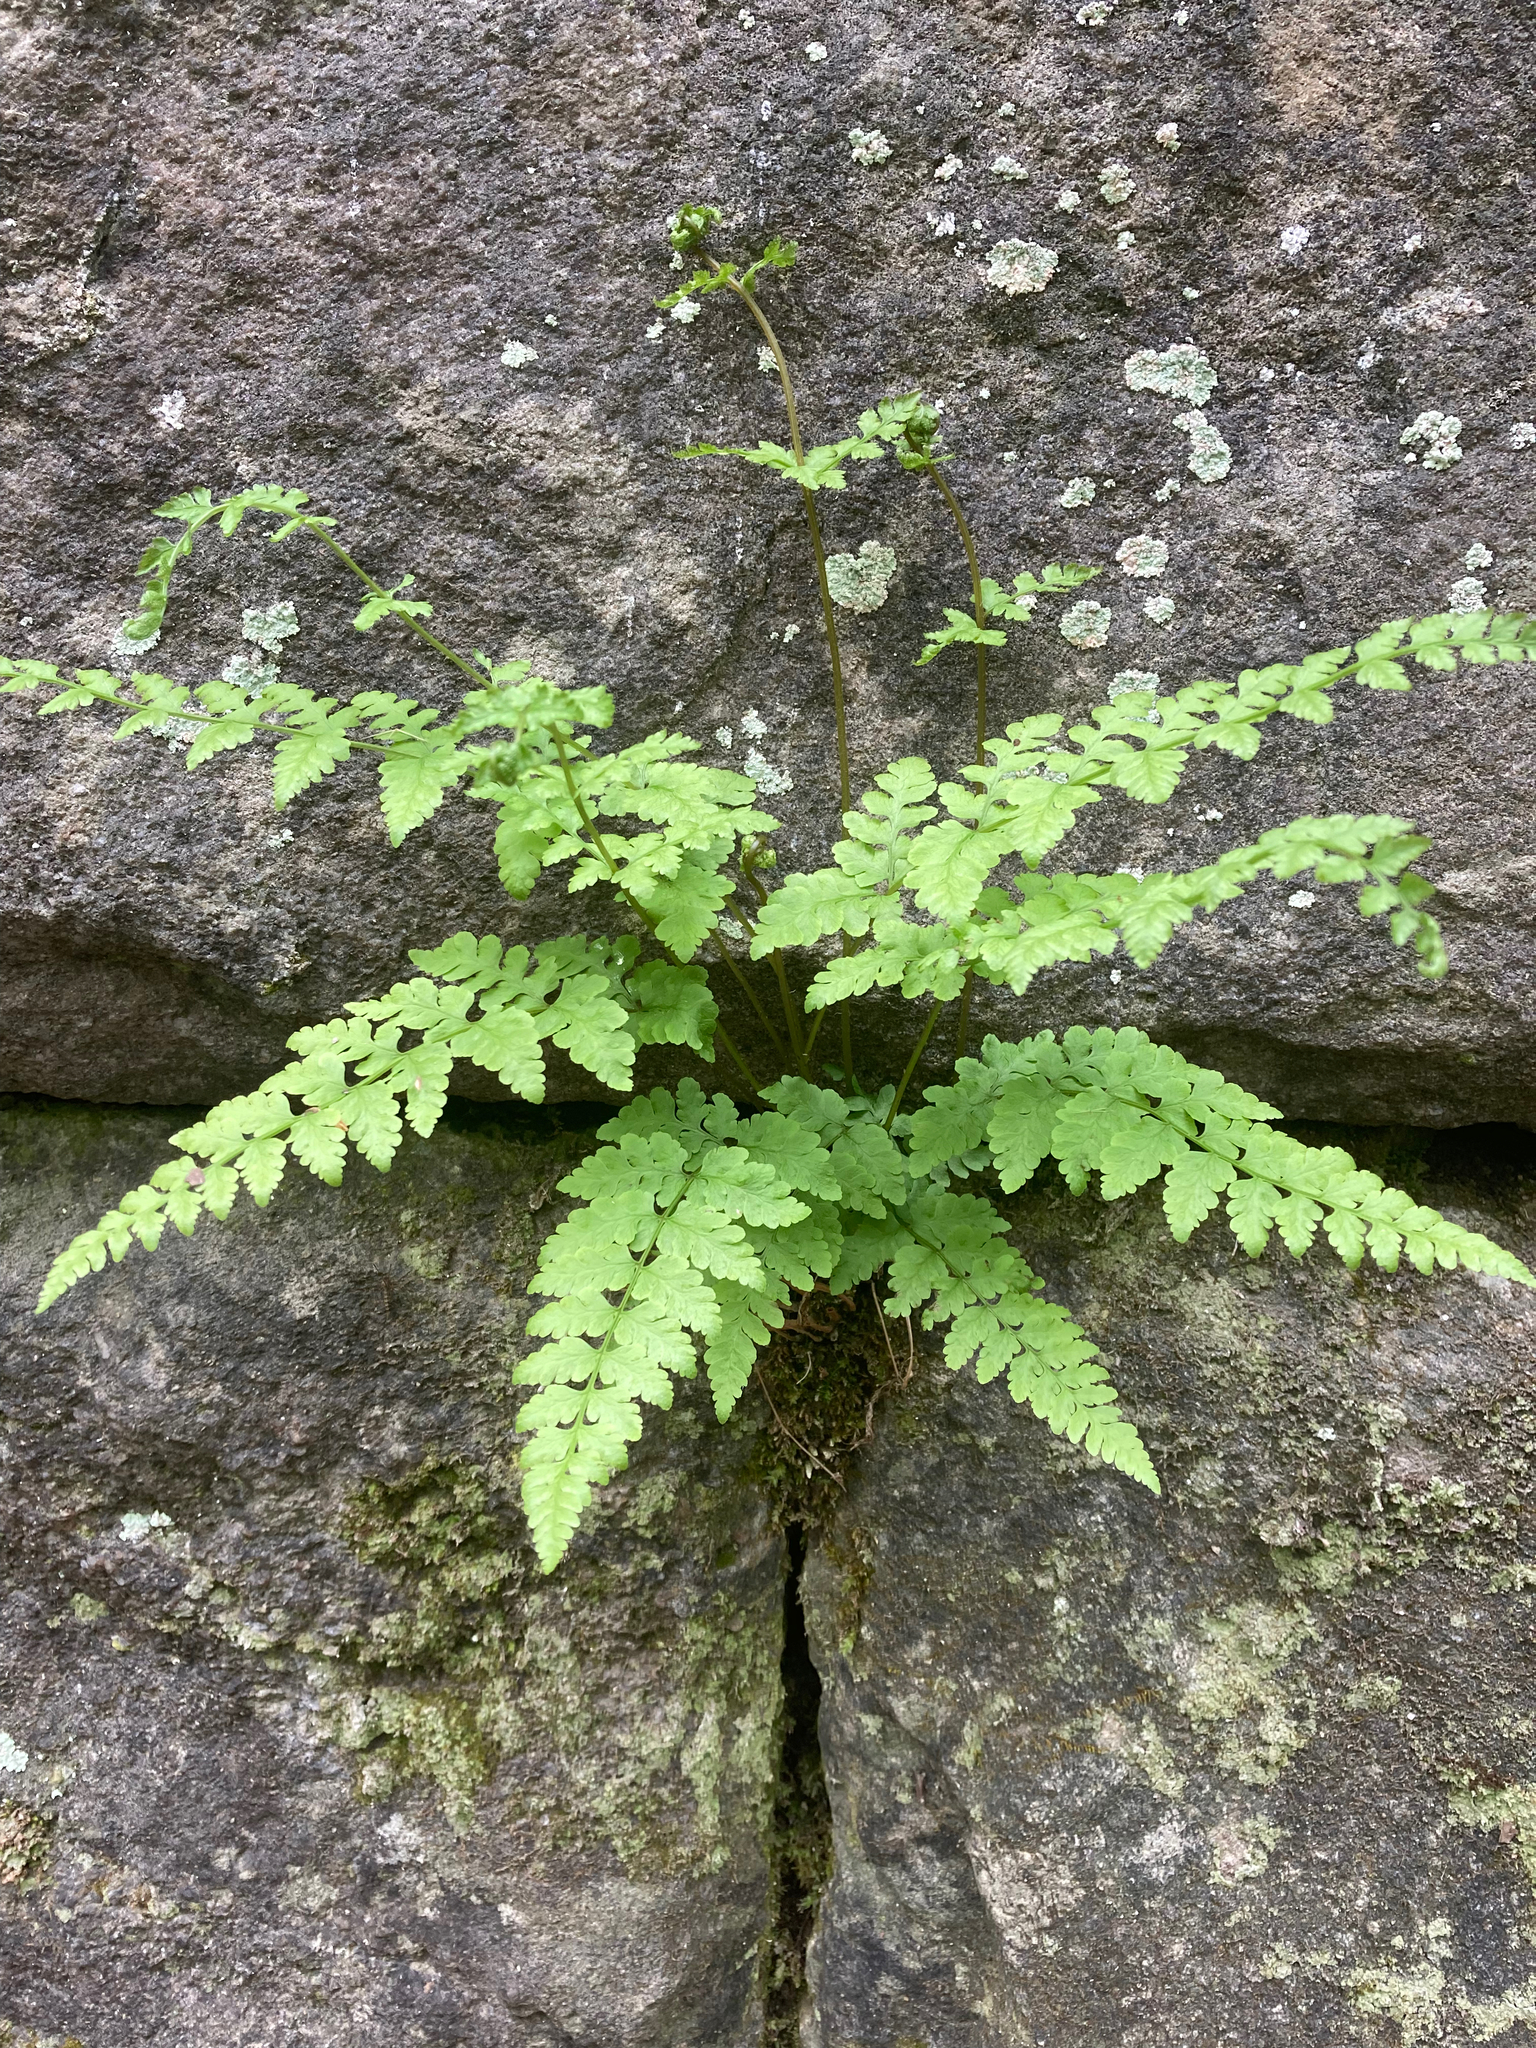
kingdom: Plantae
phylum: Tracheophyta
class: Polypodiopsida
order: Polypodiales
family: Woodsiaceae
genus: Physematium
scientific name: Physematium obtusum
